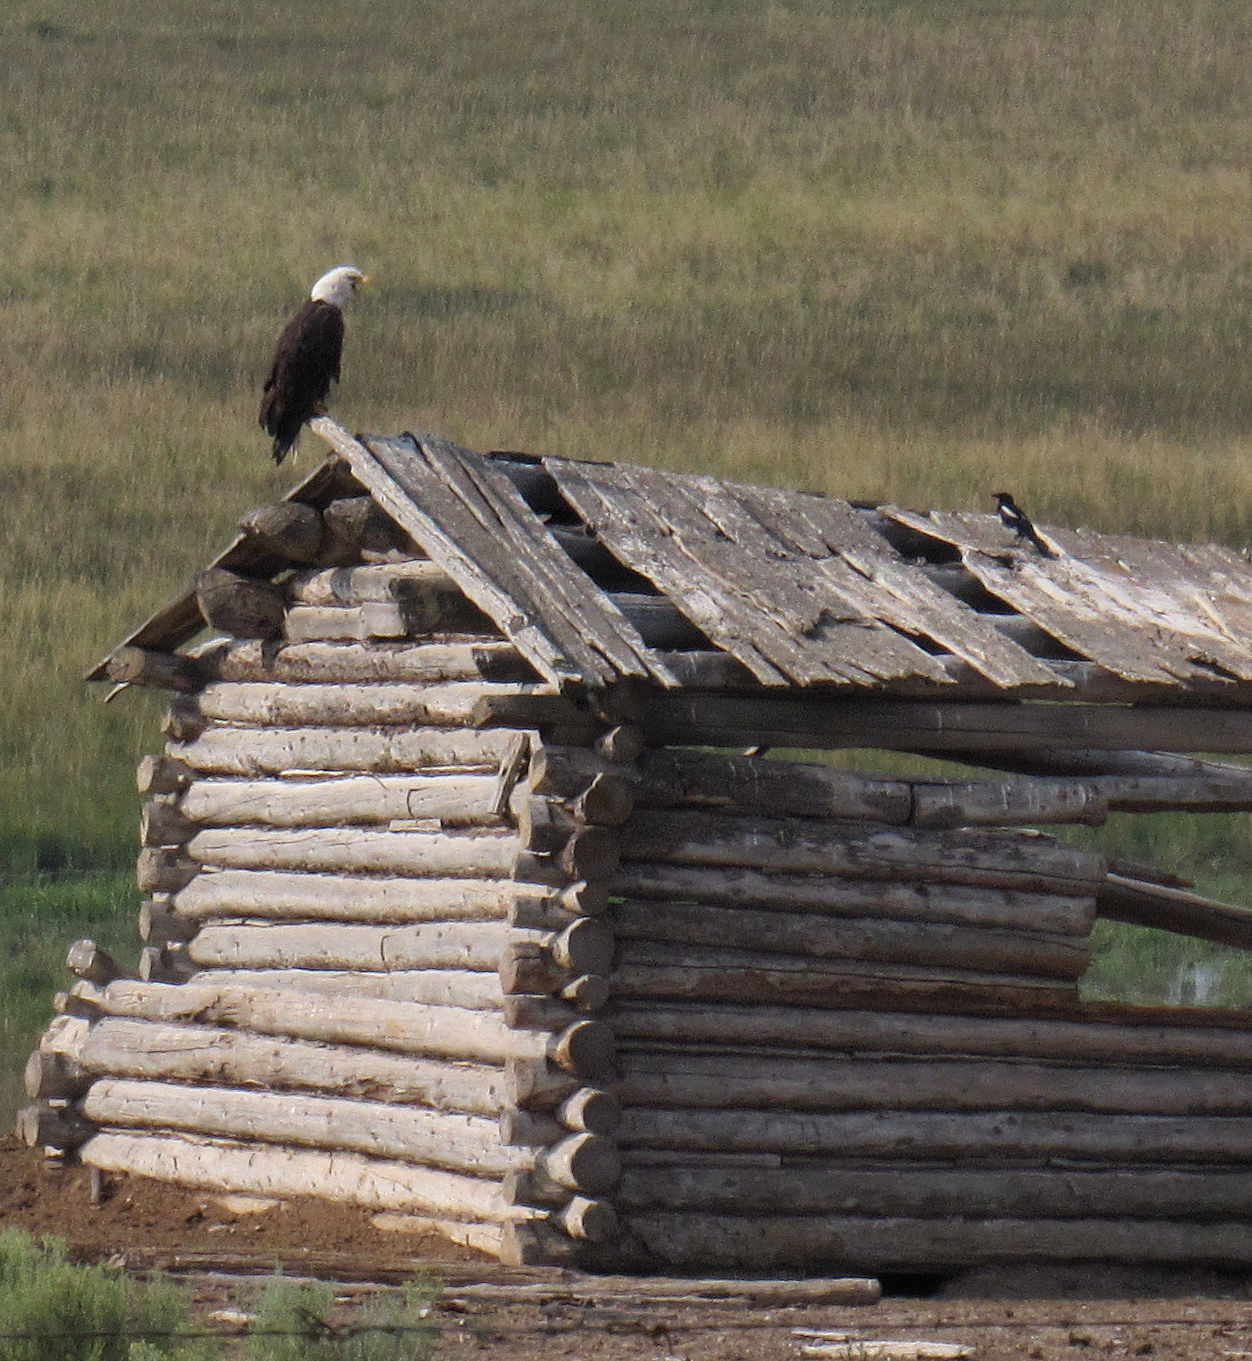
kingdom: Animalia
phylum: Chordata
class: Aves
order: Passeriformes
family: Corvidae
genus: Pica
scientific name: Pica hudsonia
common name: Black-billed magpie
